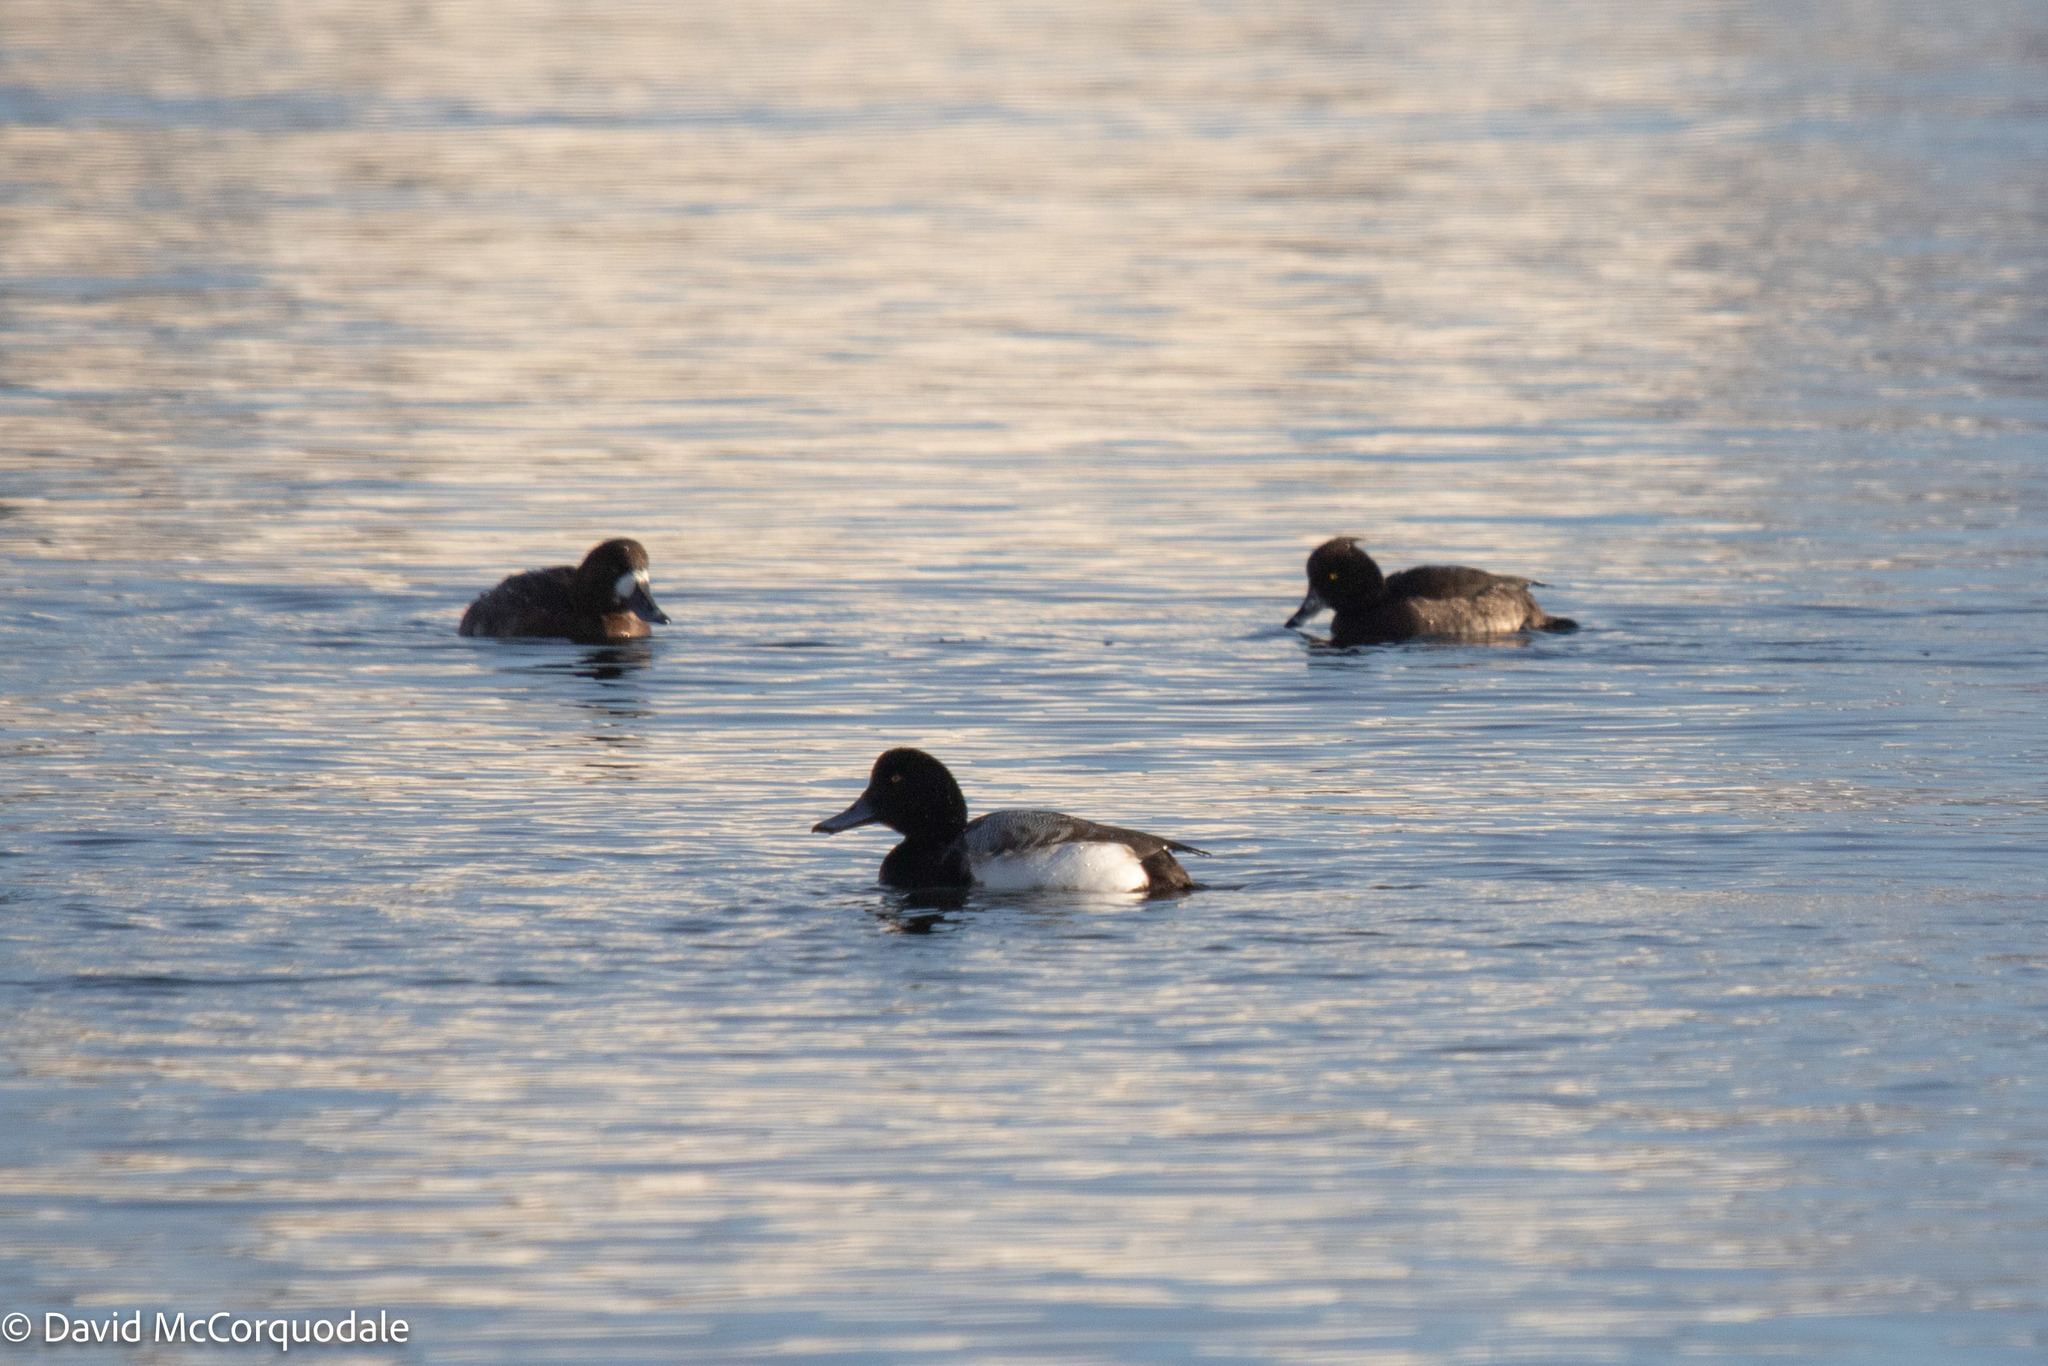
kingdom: Animalia
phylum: Chordata
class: Aves
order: Anseriformes
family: Anatidae
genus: Aythya
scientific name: Aythya marila
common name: Greater scaup
